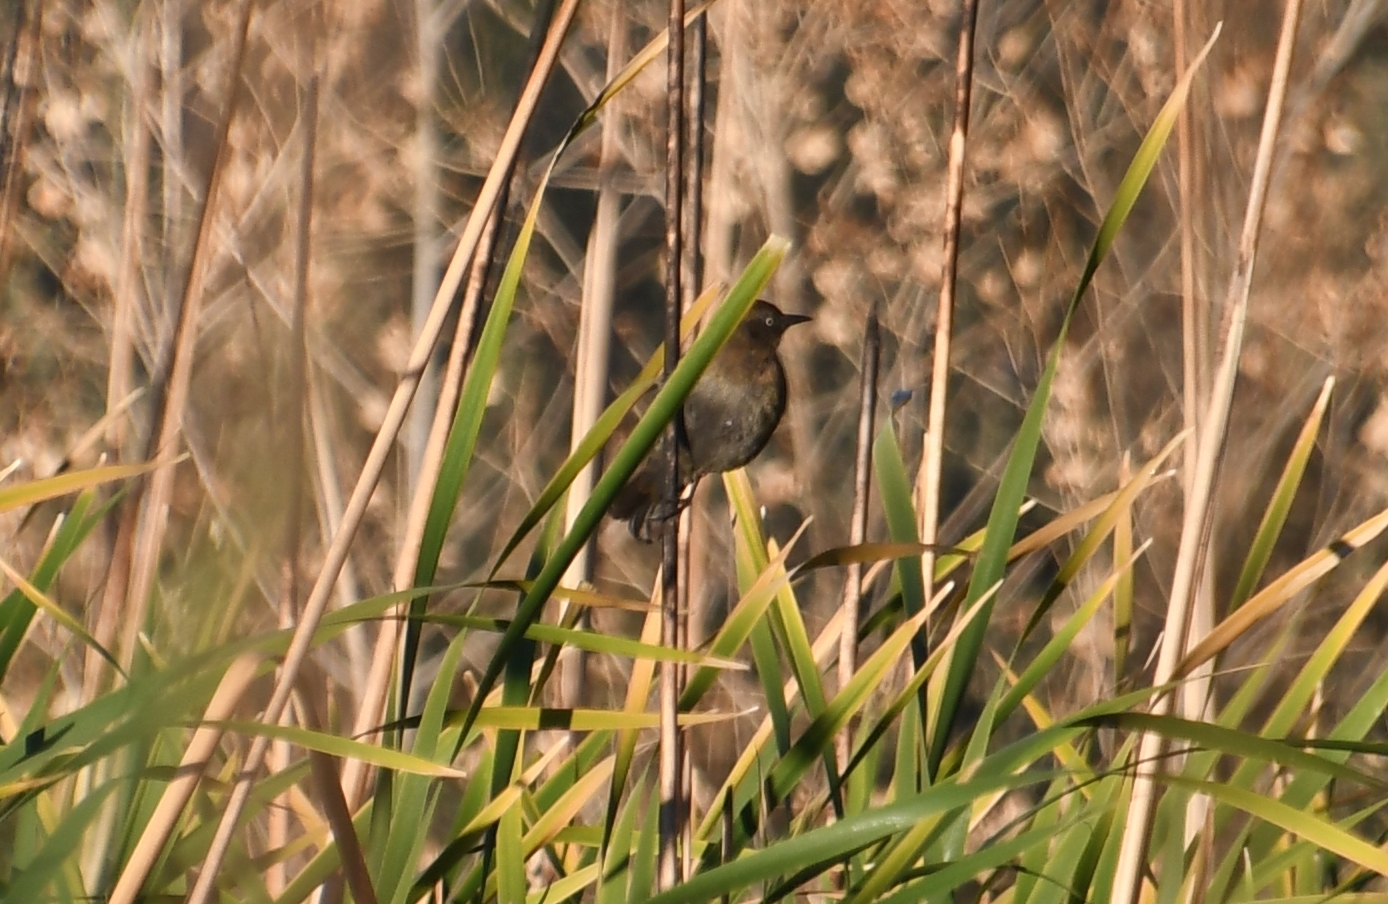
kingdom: Animalia
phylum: Chordata
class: Aves
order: Passeriformes
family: Icteridae
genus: Euphagus
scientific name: Euphagus carolinus
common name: Rusty blackbird
